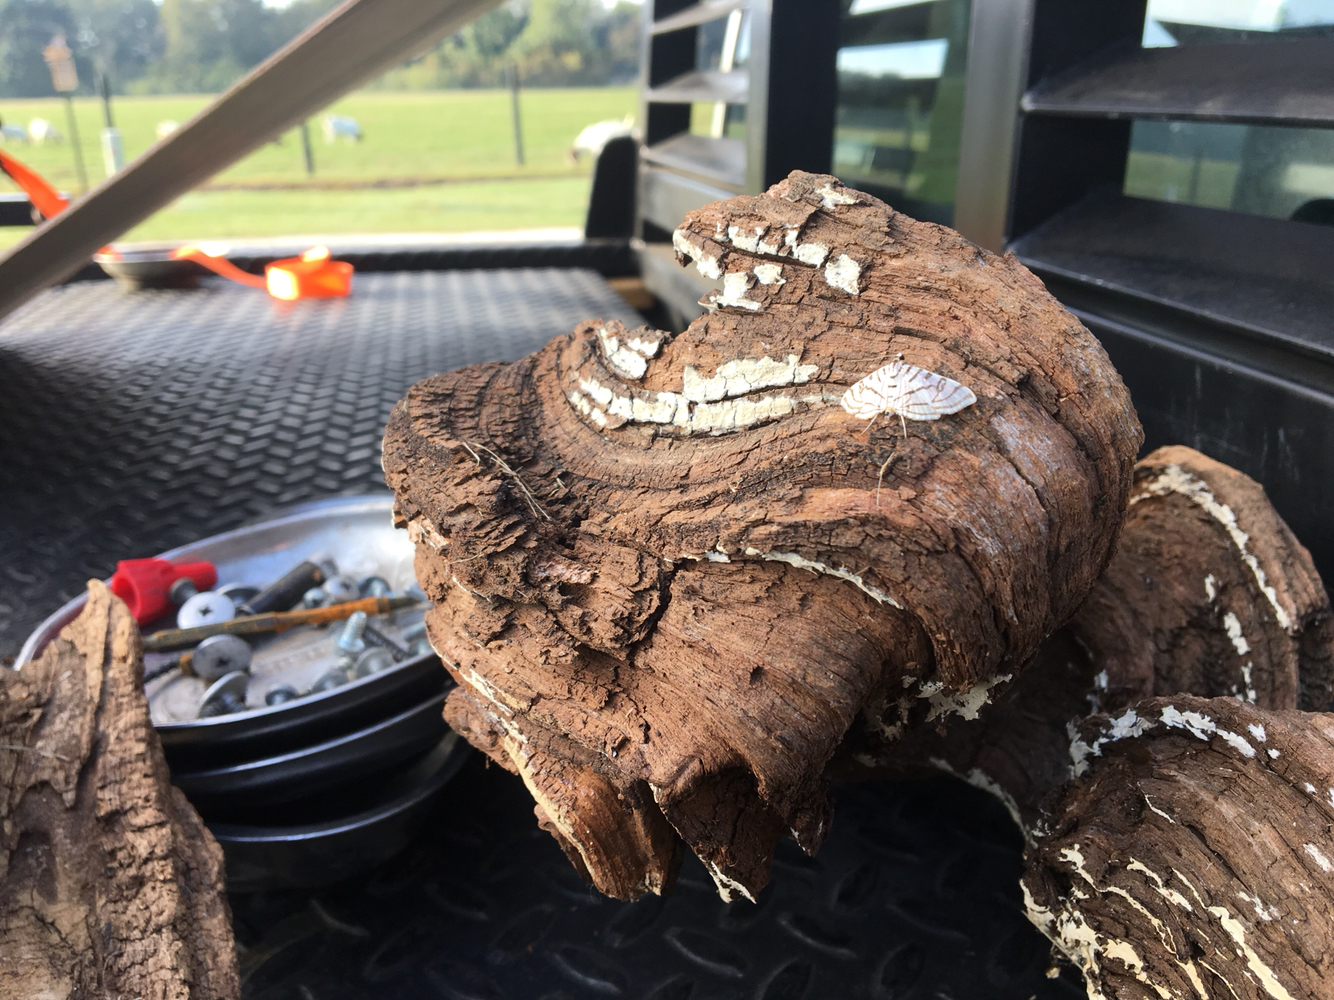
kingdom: Animalia
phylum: Arthropoda
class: Insecta
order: Lepidoptera
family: Crambidae
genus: Conchylodes
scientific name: Conchylodes ovulalis
